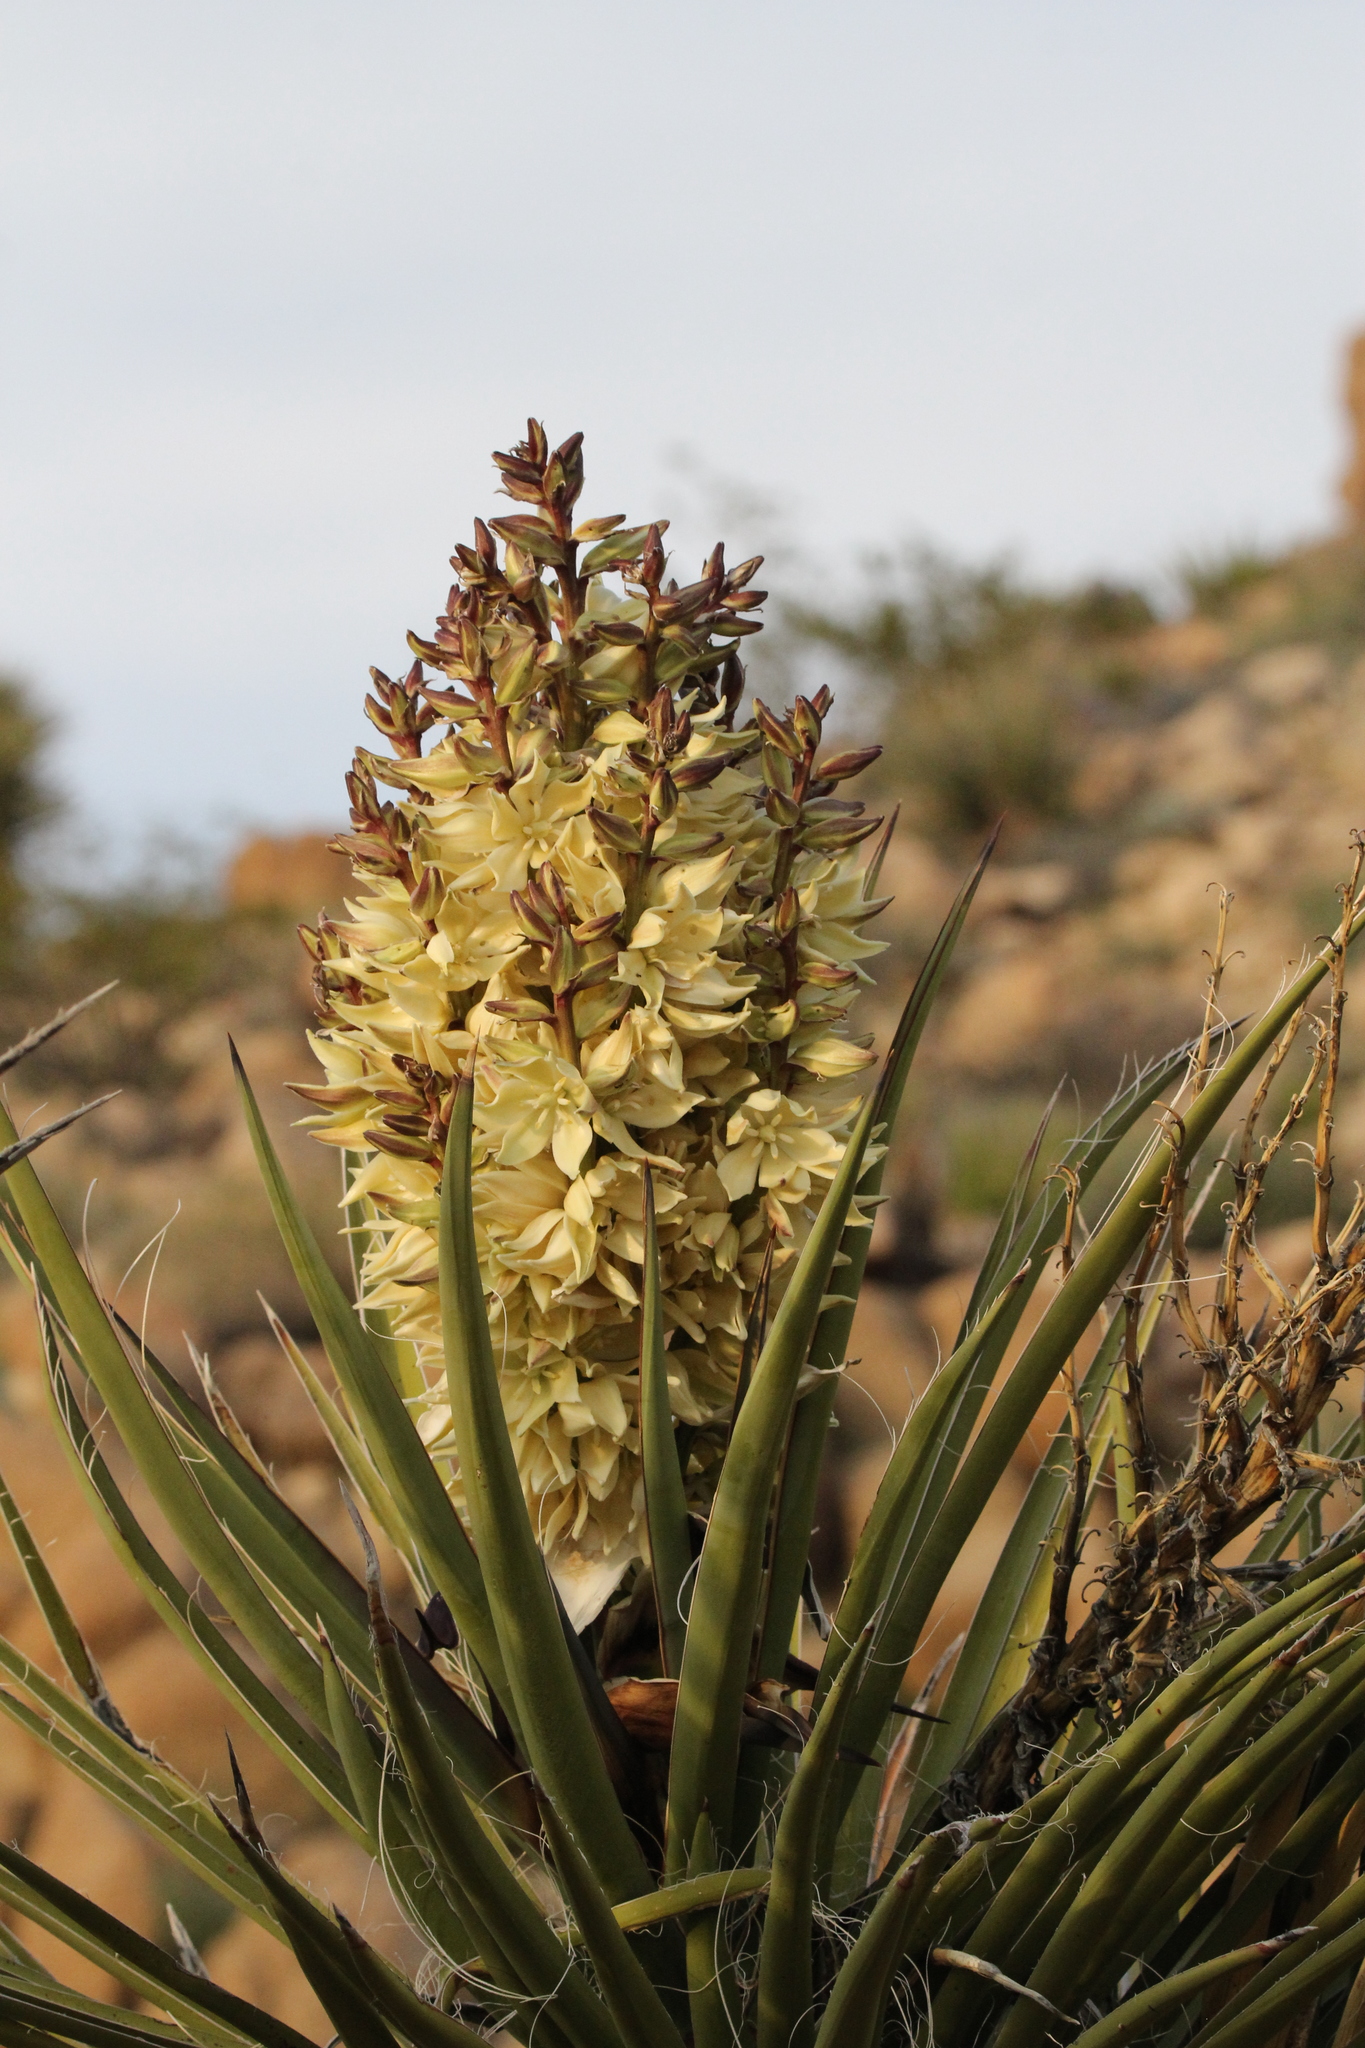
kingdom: Plantae
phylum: Tracheophyta
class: Liliopsida
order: Asparagales
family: Asparagaceae
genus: Yucca
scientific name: Yucca schidigera
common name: Mojave yucca
